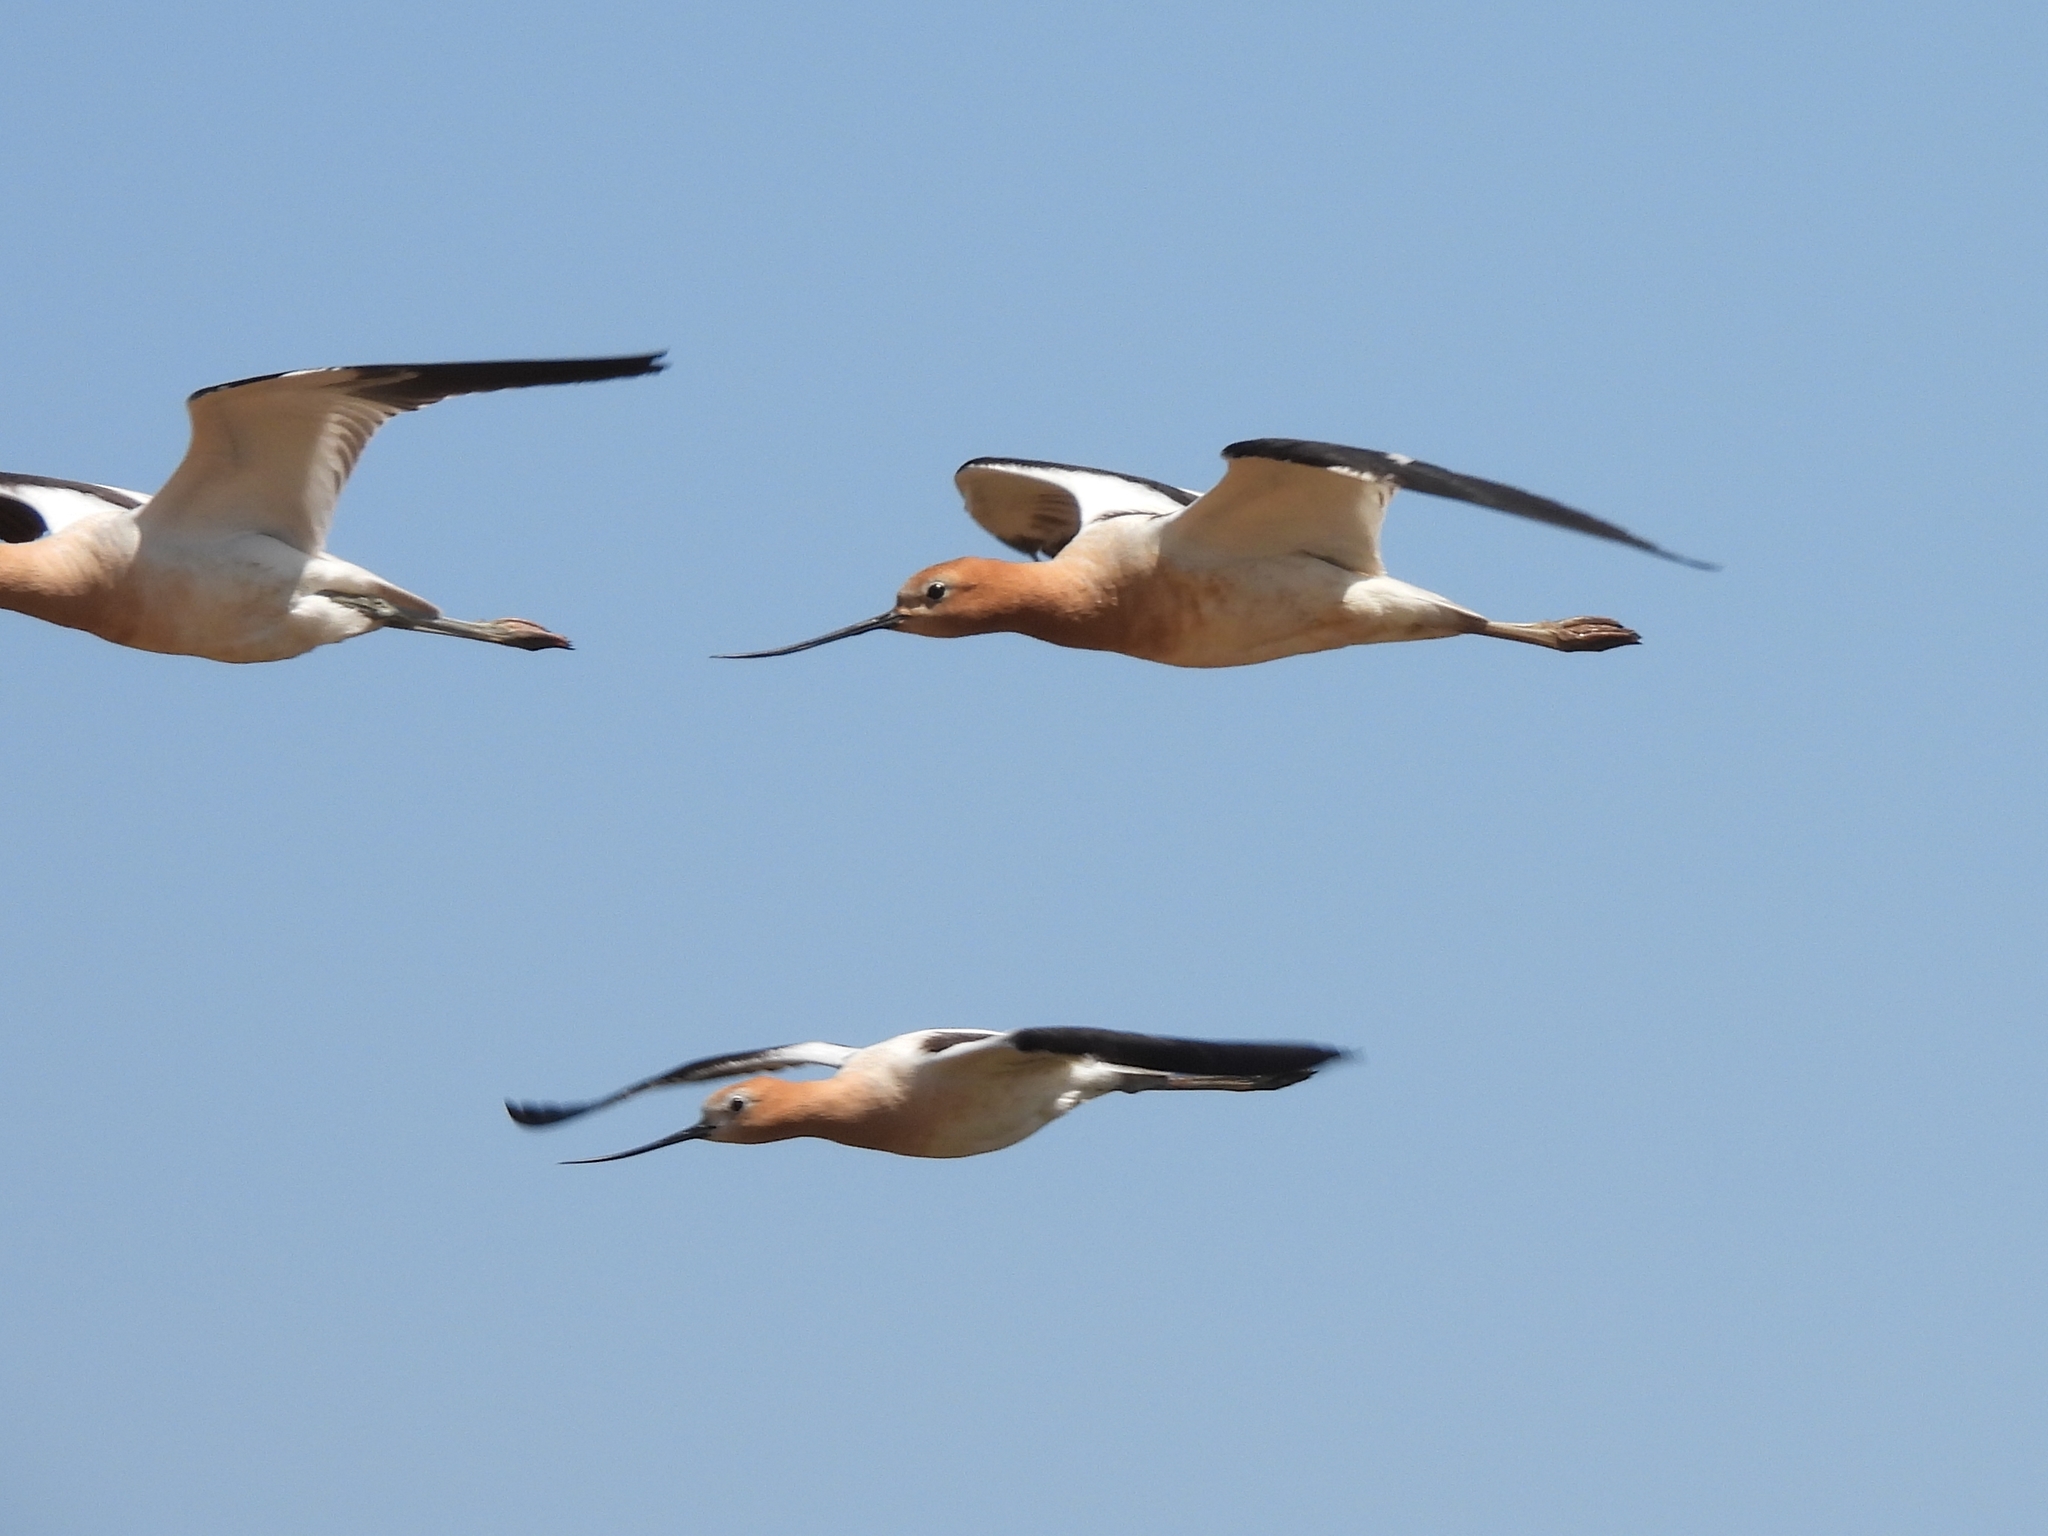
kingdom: Animalia
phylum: Chordata
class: Aves
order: Charadriiformes
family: Recurvirostridae
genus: Recurvirostra
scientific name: Recurvirostra americana
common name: American avocet
